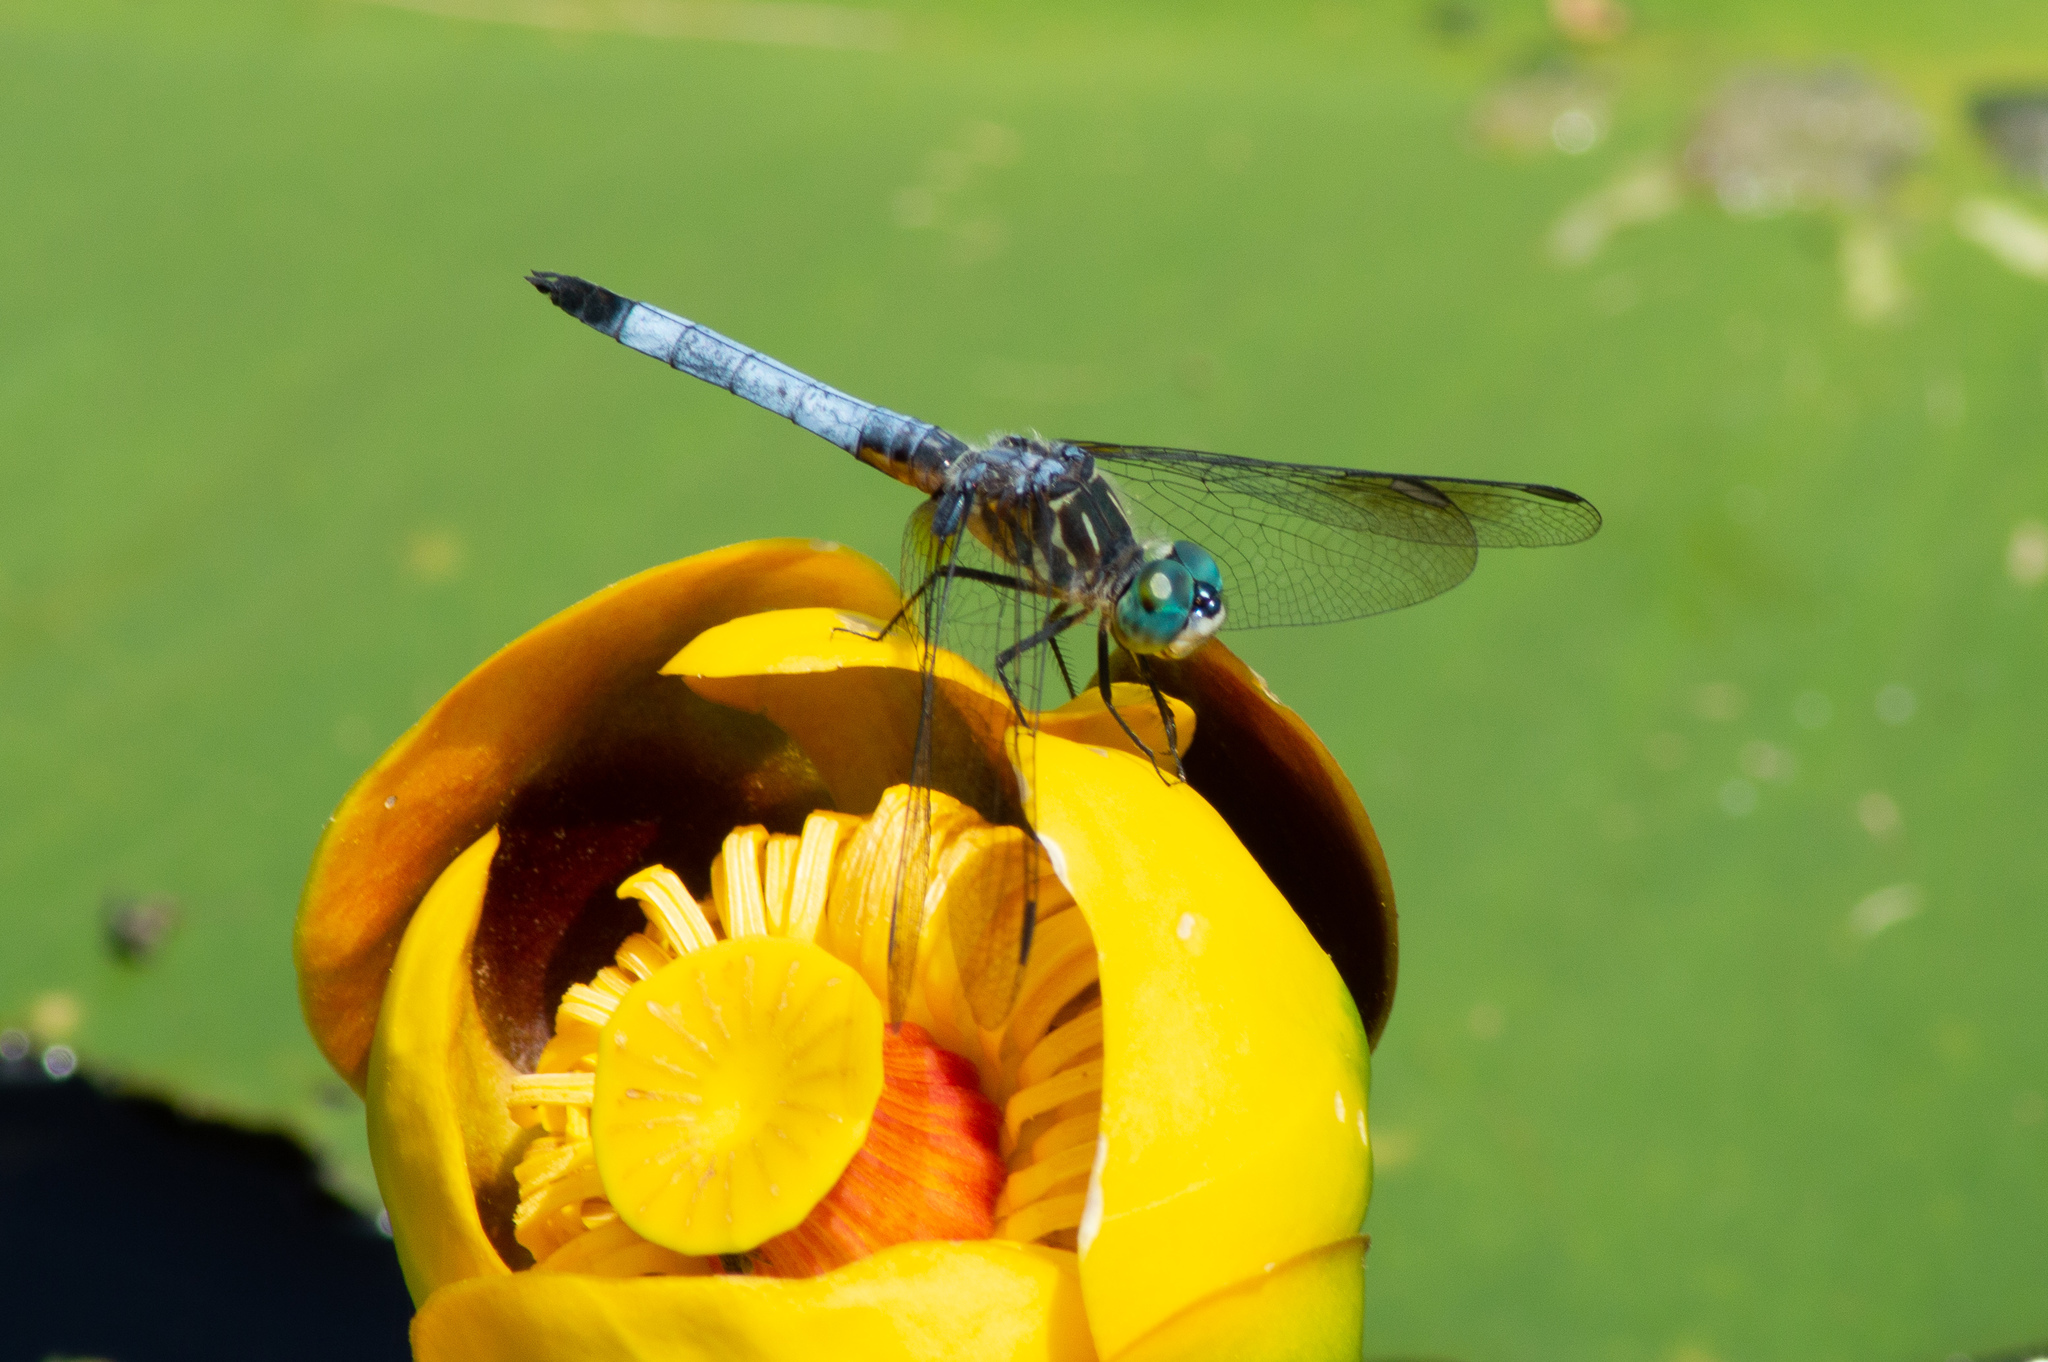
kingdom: Animalia
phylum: Arthropoda
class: Insecta
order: Odonata
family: Libellulidae
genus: Pachydiplax
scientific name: Pachydiplax longipennis
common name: Blue dasher
